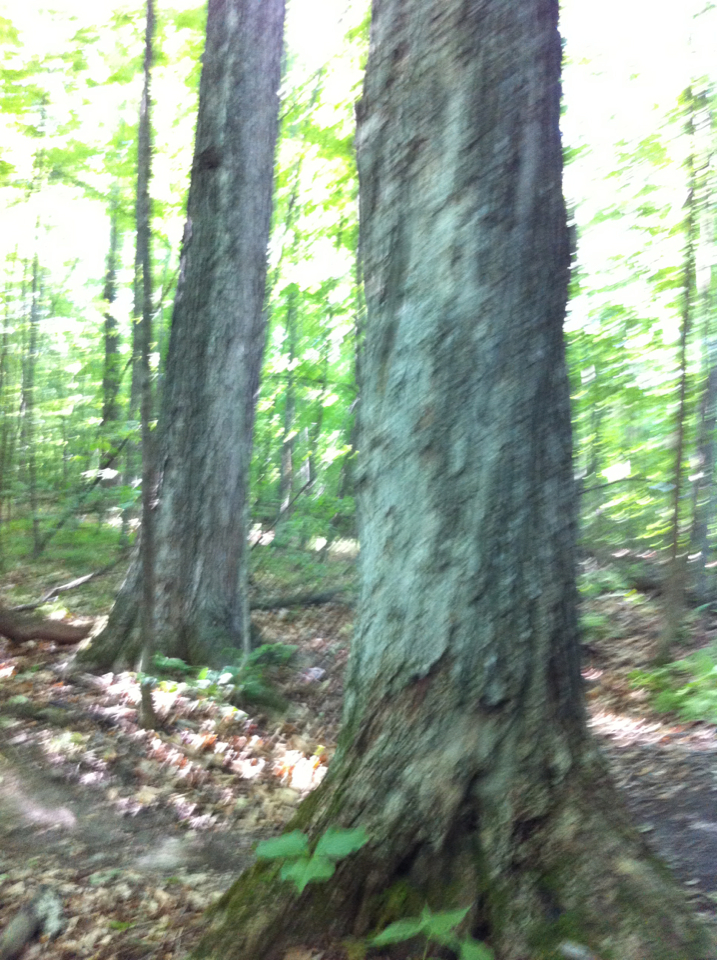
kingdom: Plantae
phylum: Tracheophyta
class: Magnoliopsida
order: Sapindales
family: Sapindaceae
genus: Acer
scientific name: Acer saccharum
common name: Sugar maple
